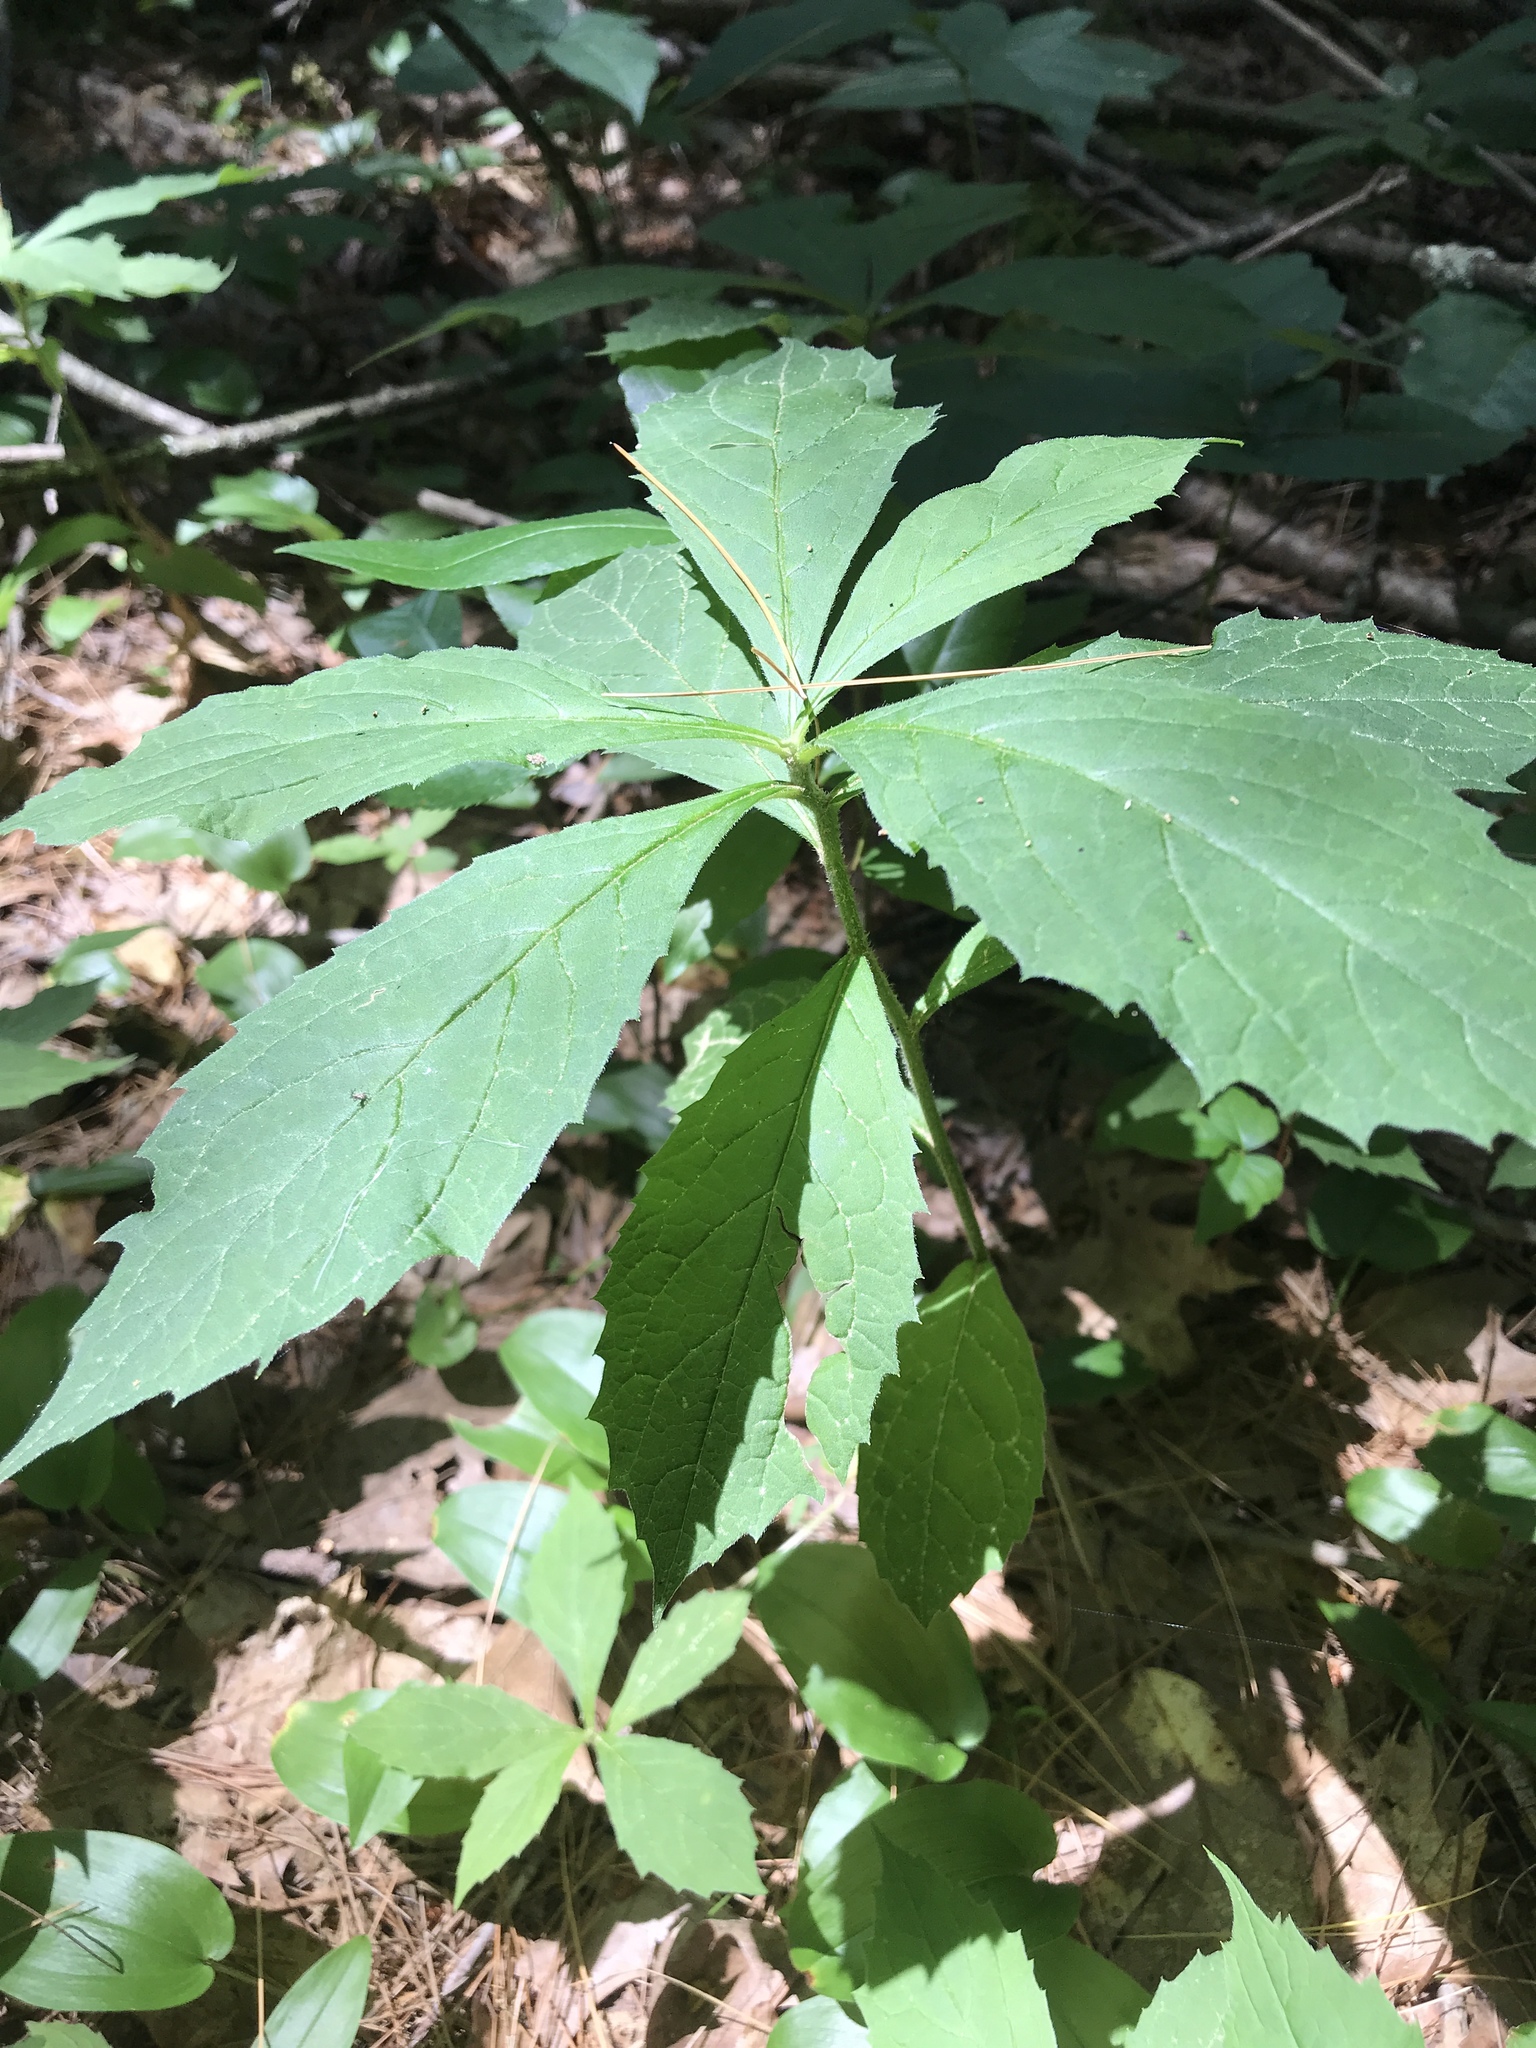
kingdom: Plantae
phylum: Tracheophyta
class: Magnoliopsida
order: Asterales
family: Asteraceae
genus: Oclemena
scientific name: Oclemena acuminata
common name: Mountain aster
